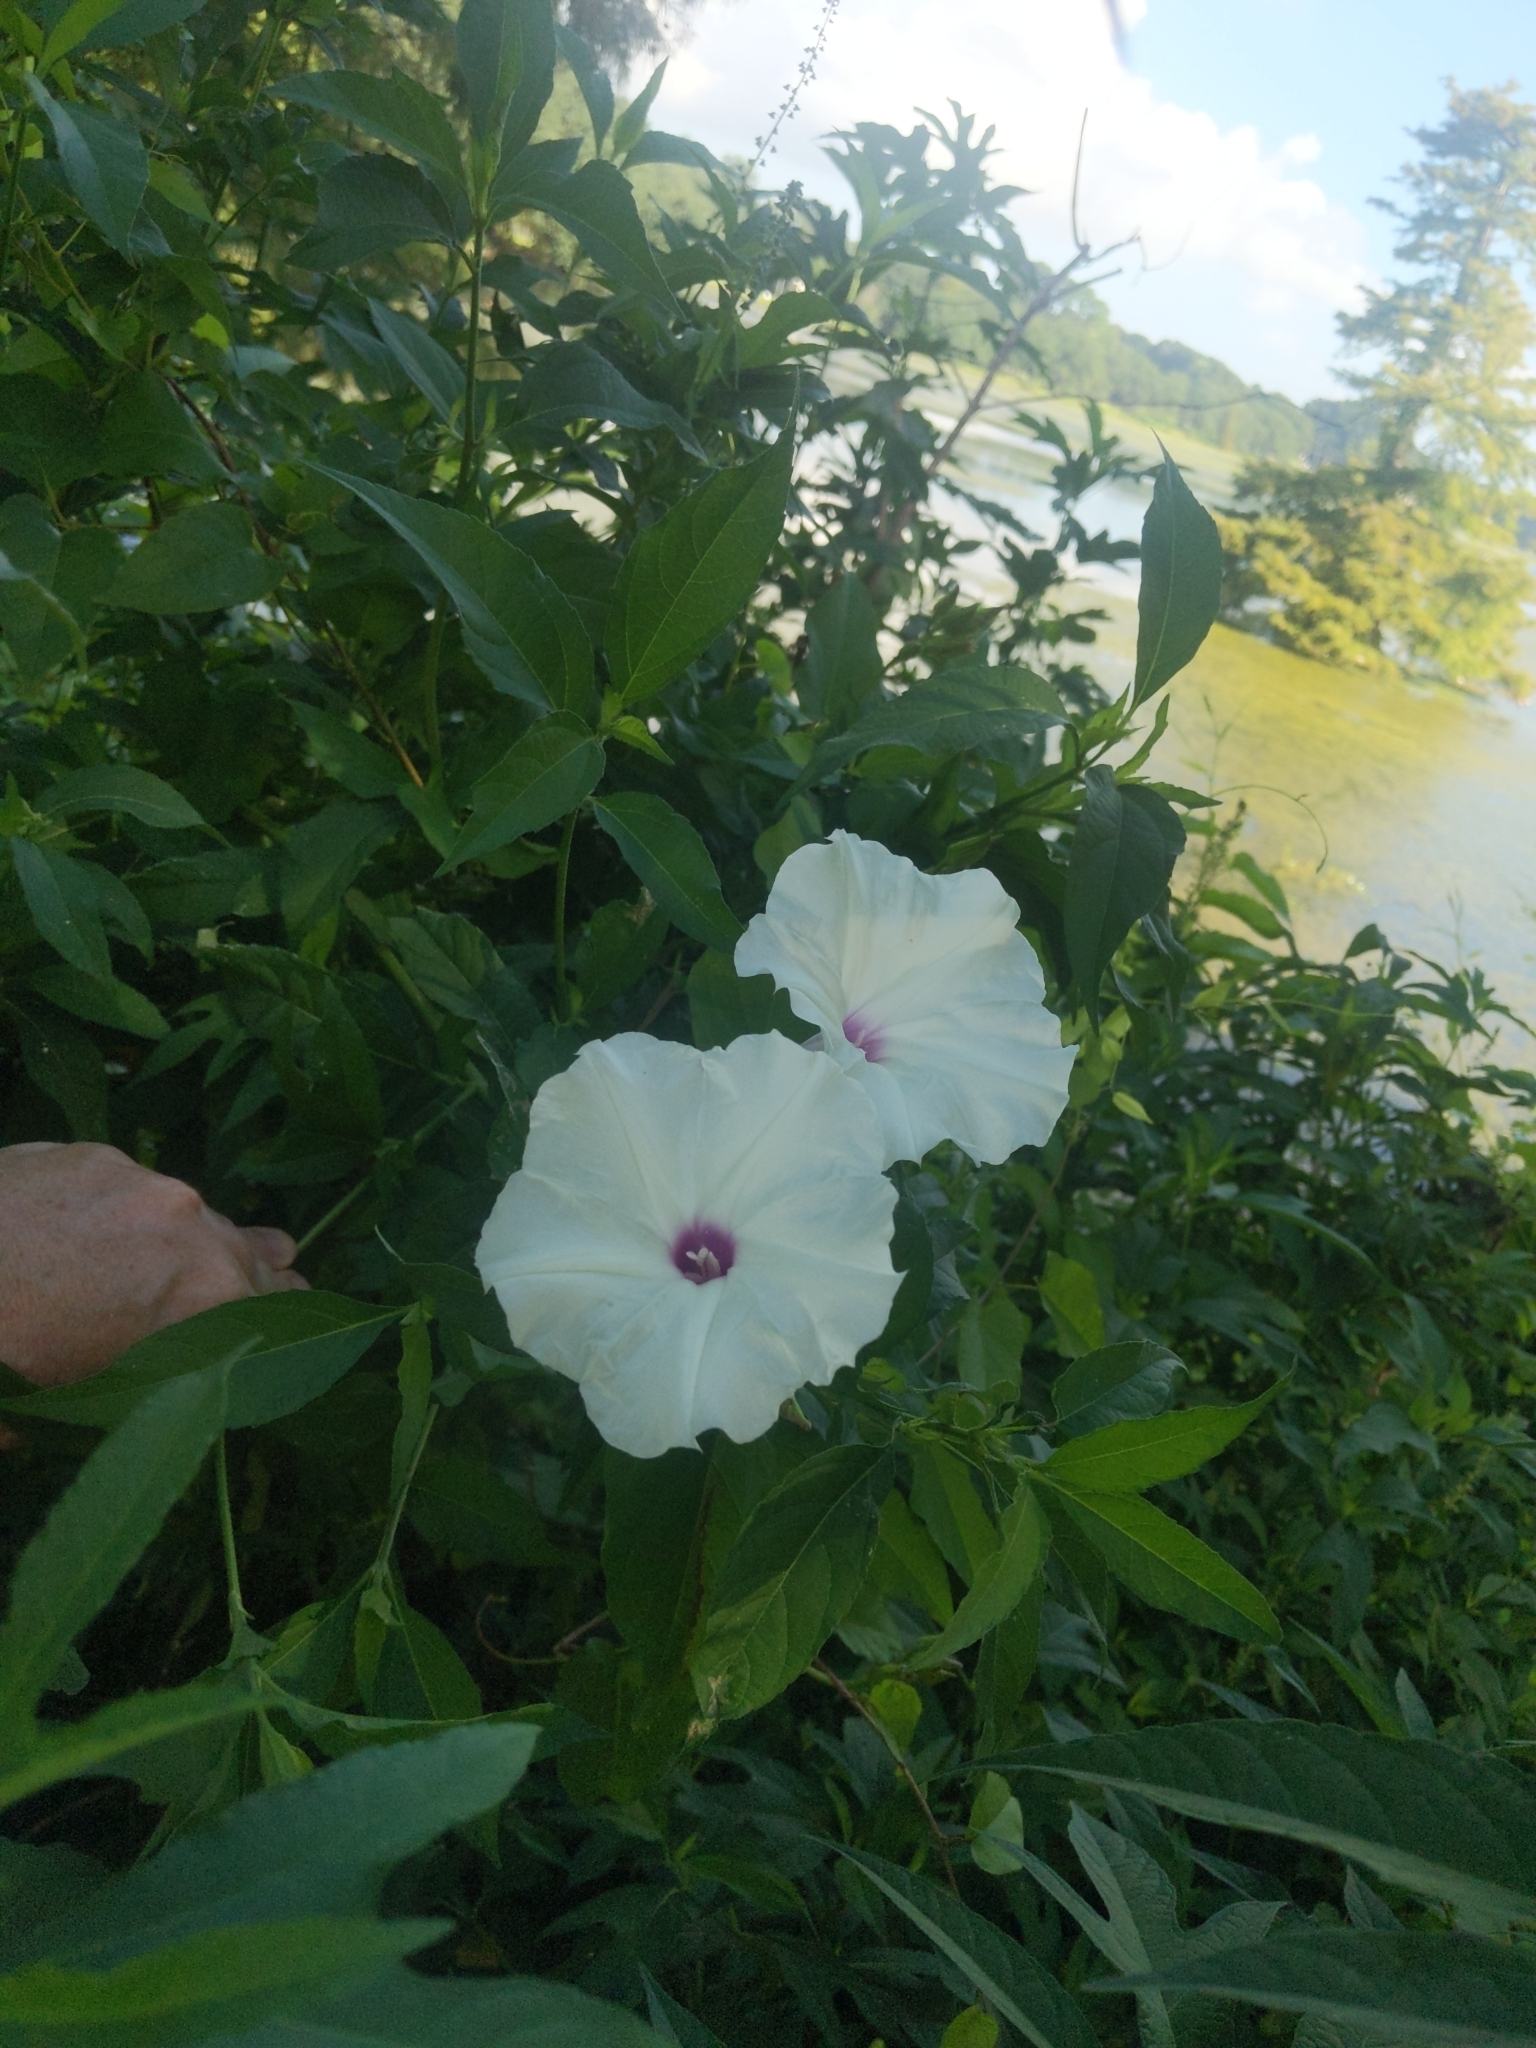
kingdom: Plantae
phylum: Tracheophyta
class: Magnoliopsida
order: Solanales
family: Convolvulaceae
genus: Ipomoea
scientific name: Ipomoea pandurata
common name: Man-of-the-earth
